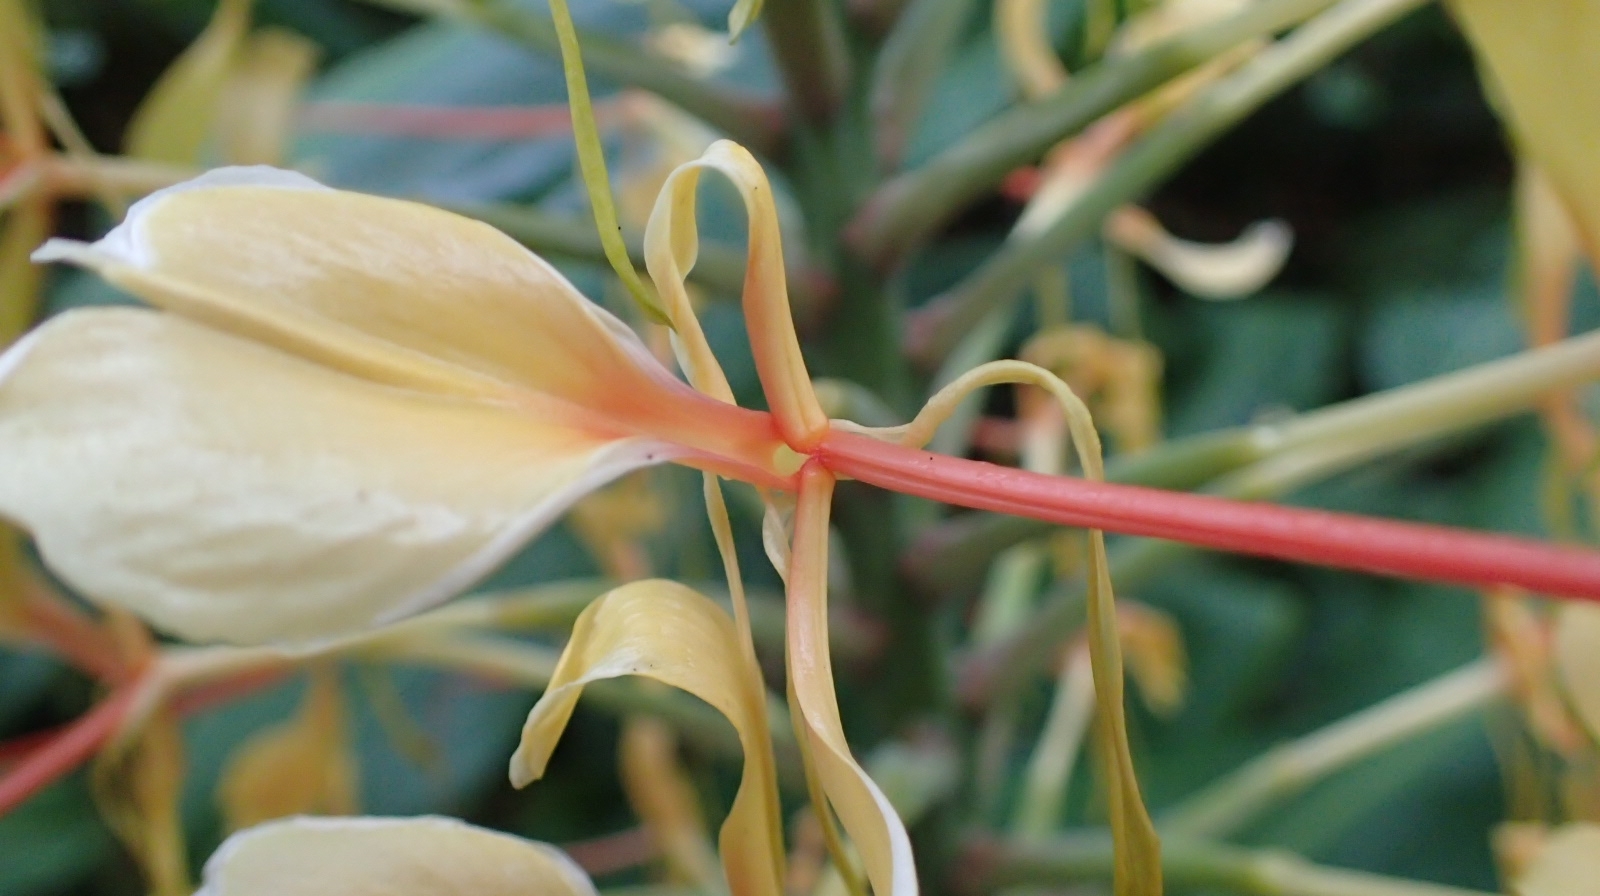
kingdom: Plantae
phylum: Tracheophyta
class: Liliopsida
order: Zingiberales
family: Zingiberaceae
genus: Hedychium
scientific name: Hedychium gardnerianum
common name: Himalayan ginger
